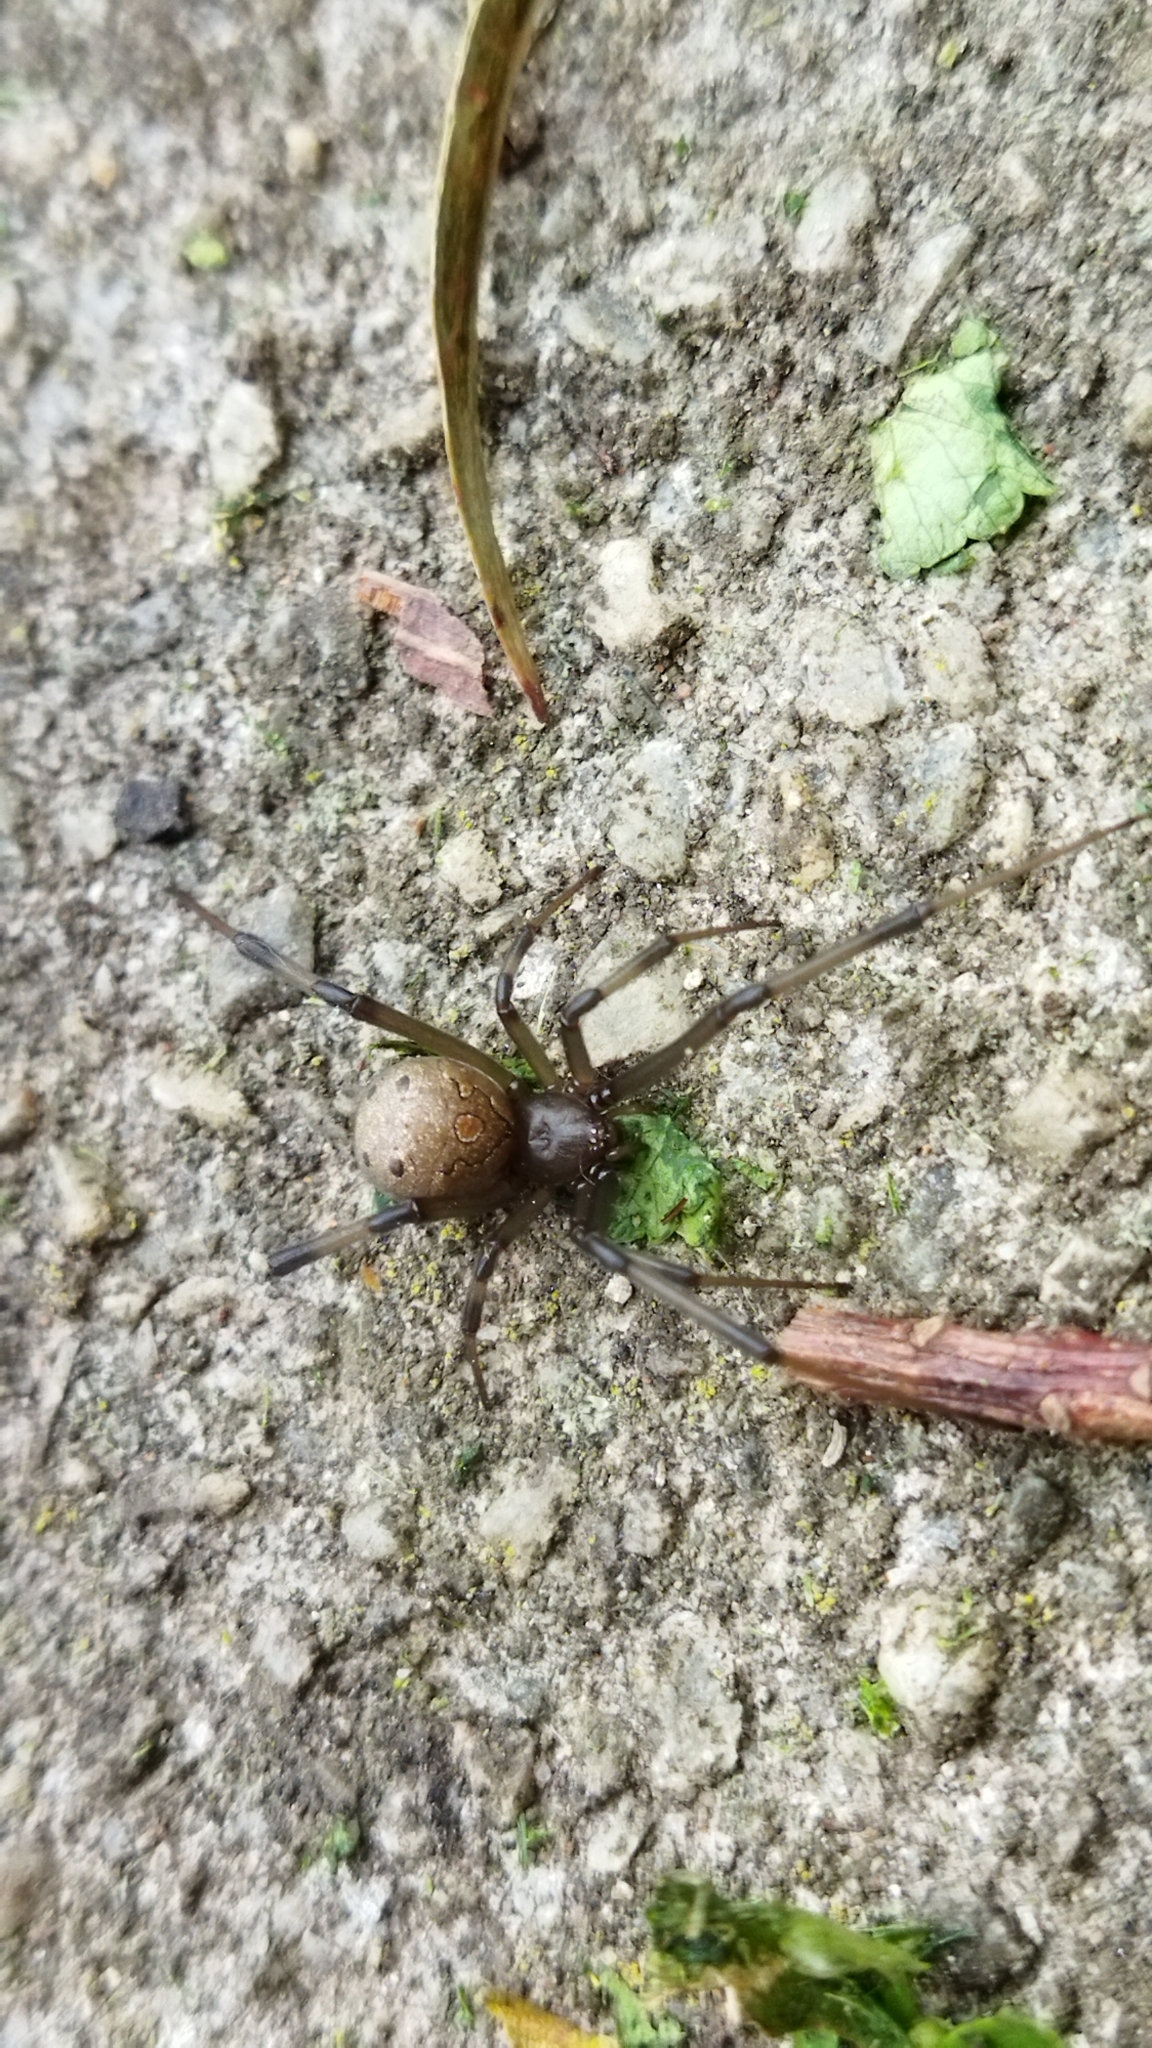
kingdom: Animalia
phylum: Arthropoda
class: Arachnida
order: Araneae
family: Theridiidae
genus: Latrodectus
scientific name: Latrodectus geometricus
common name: Brown widow spider
